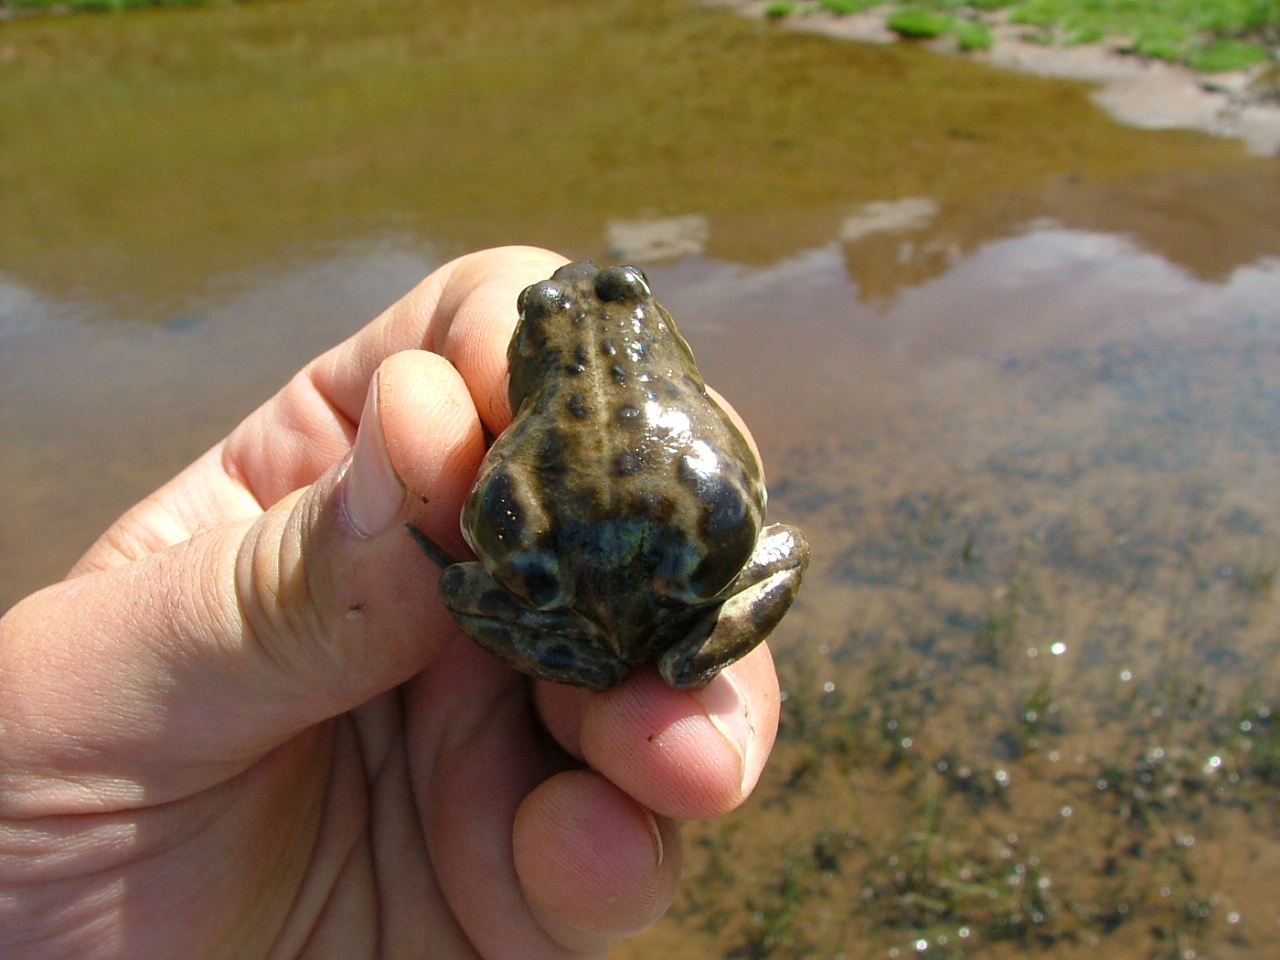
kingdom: Animalia
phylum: Chordata
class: Amphibia
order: Anura
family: Leptodactylidae
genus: Pleurodema
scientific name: Pleurodema bufoninum
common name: Large four-eyed frog
